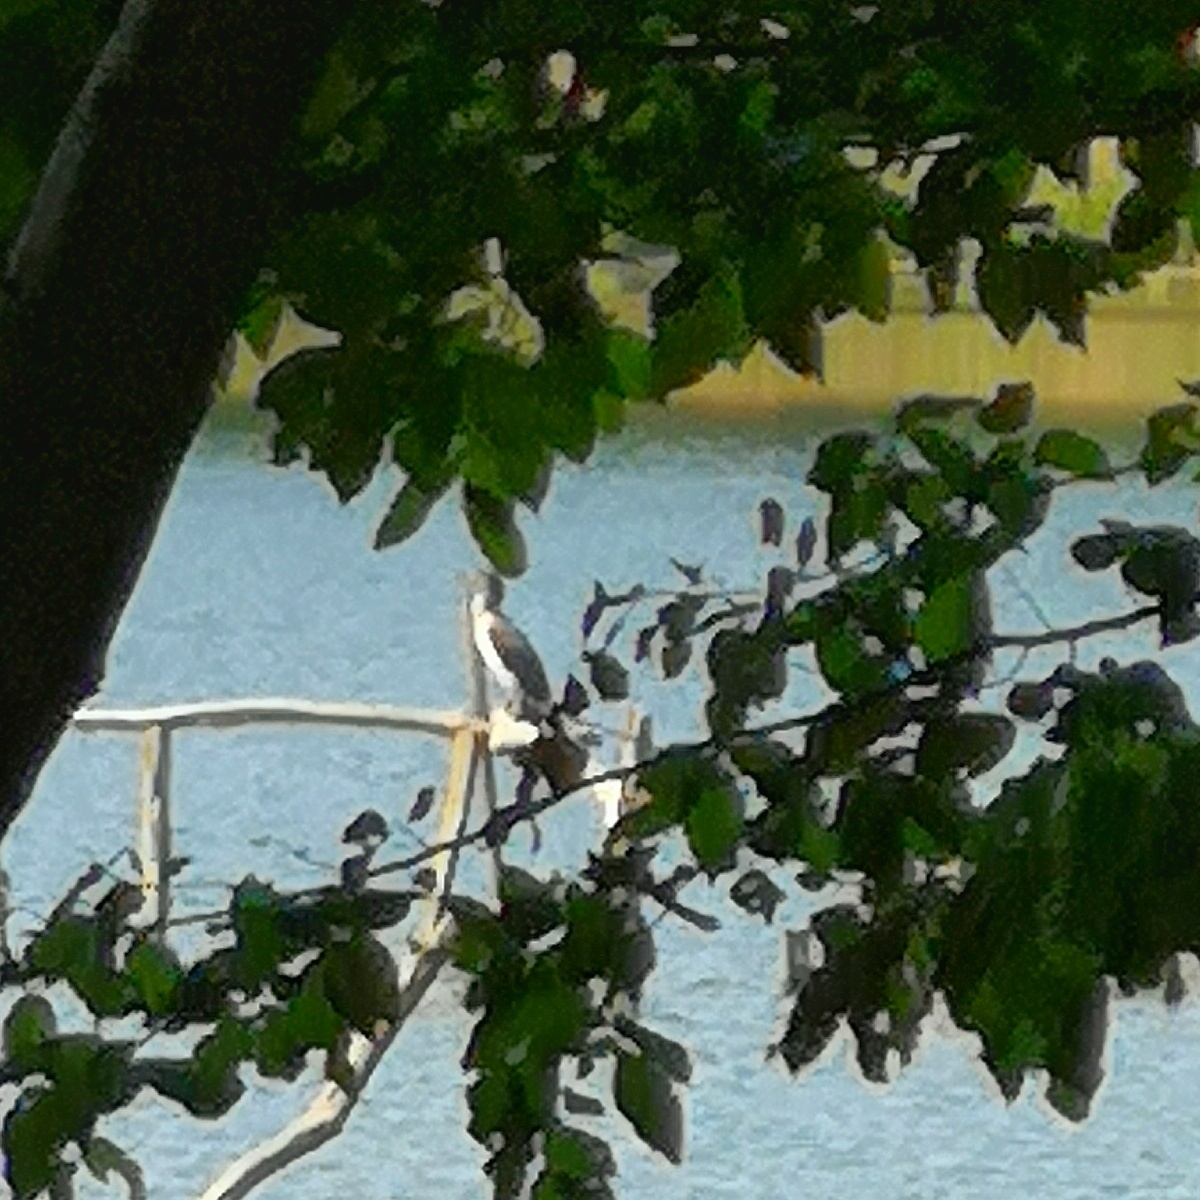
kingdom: Animalia
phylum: Chordata
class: Aves
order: Suliformes
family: Phalacrocoracidae
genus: Phalacrocorax
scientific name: Phalacrocorax carbo
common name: Great cormorant
